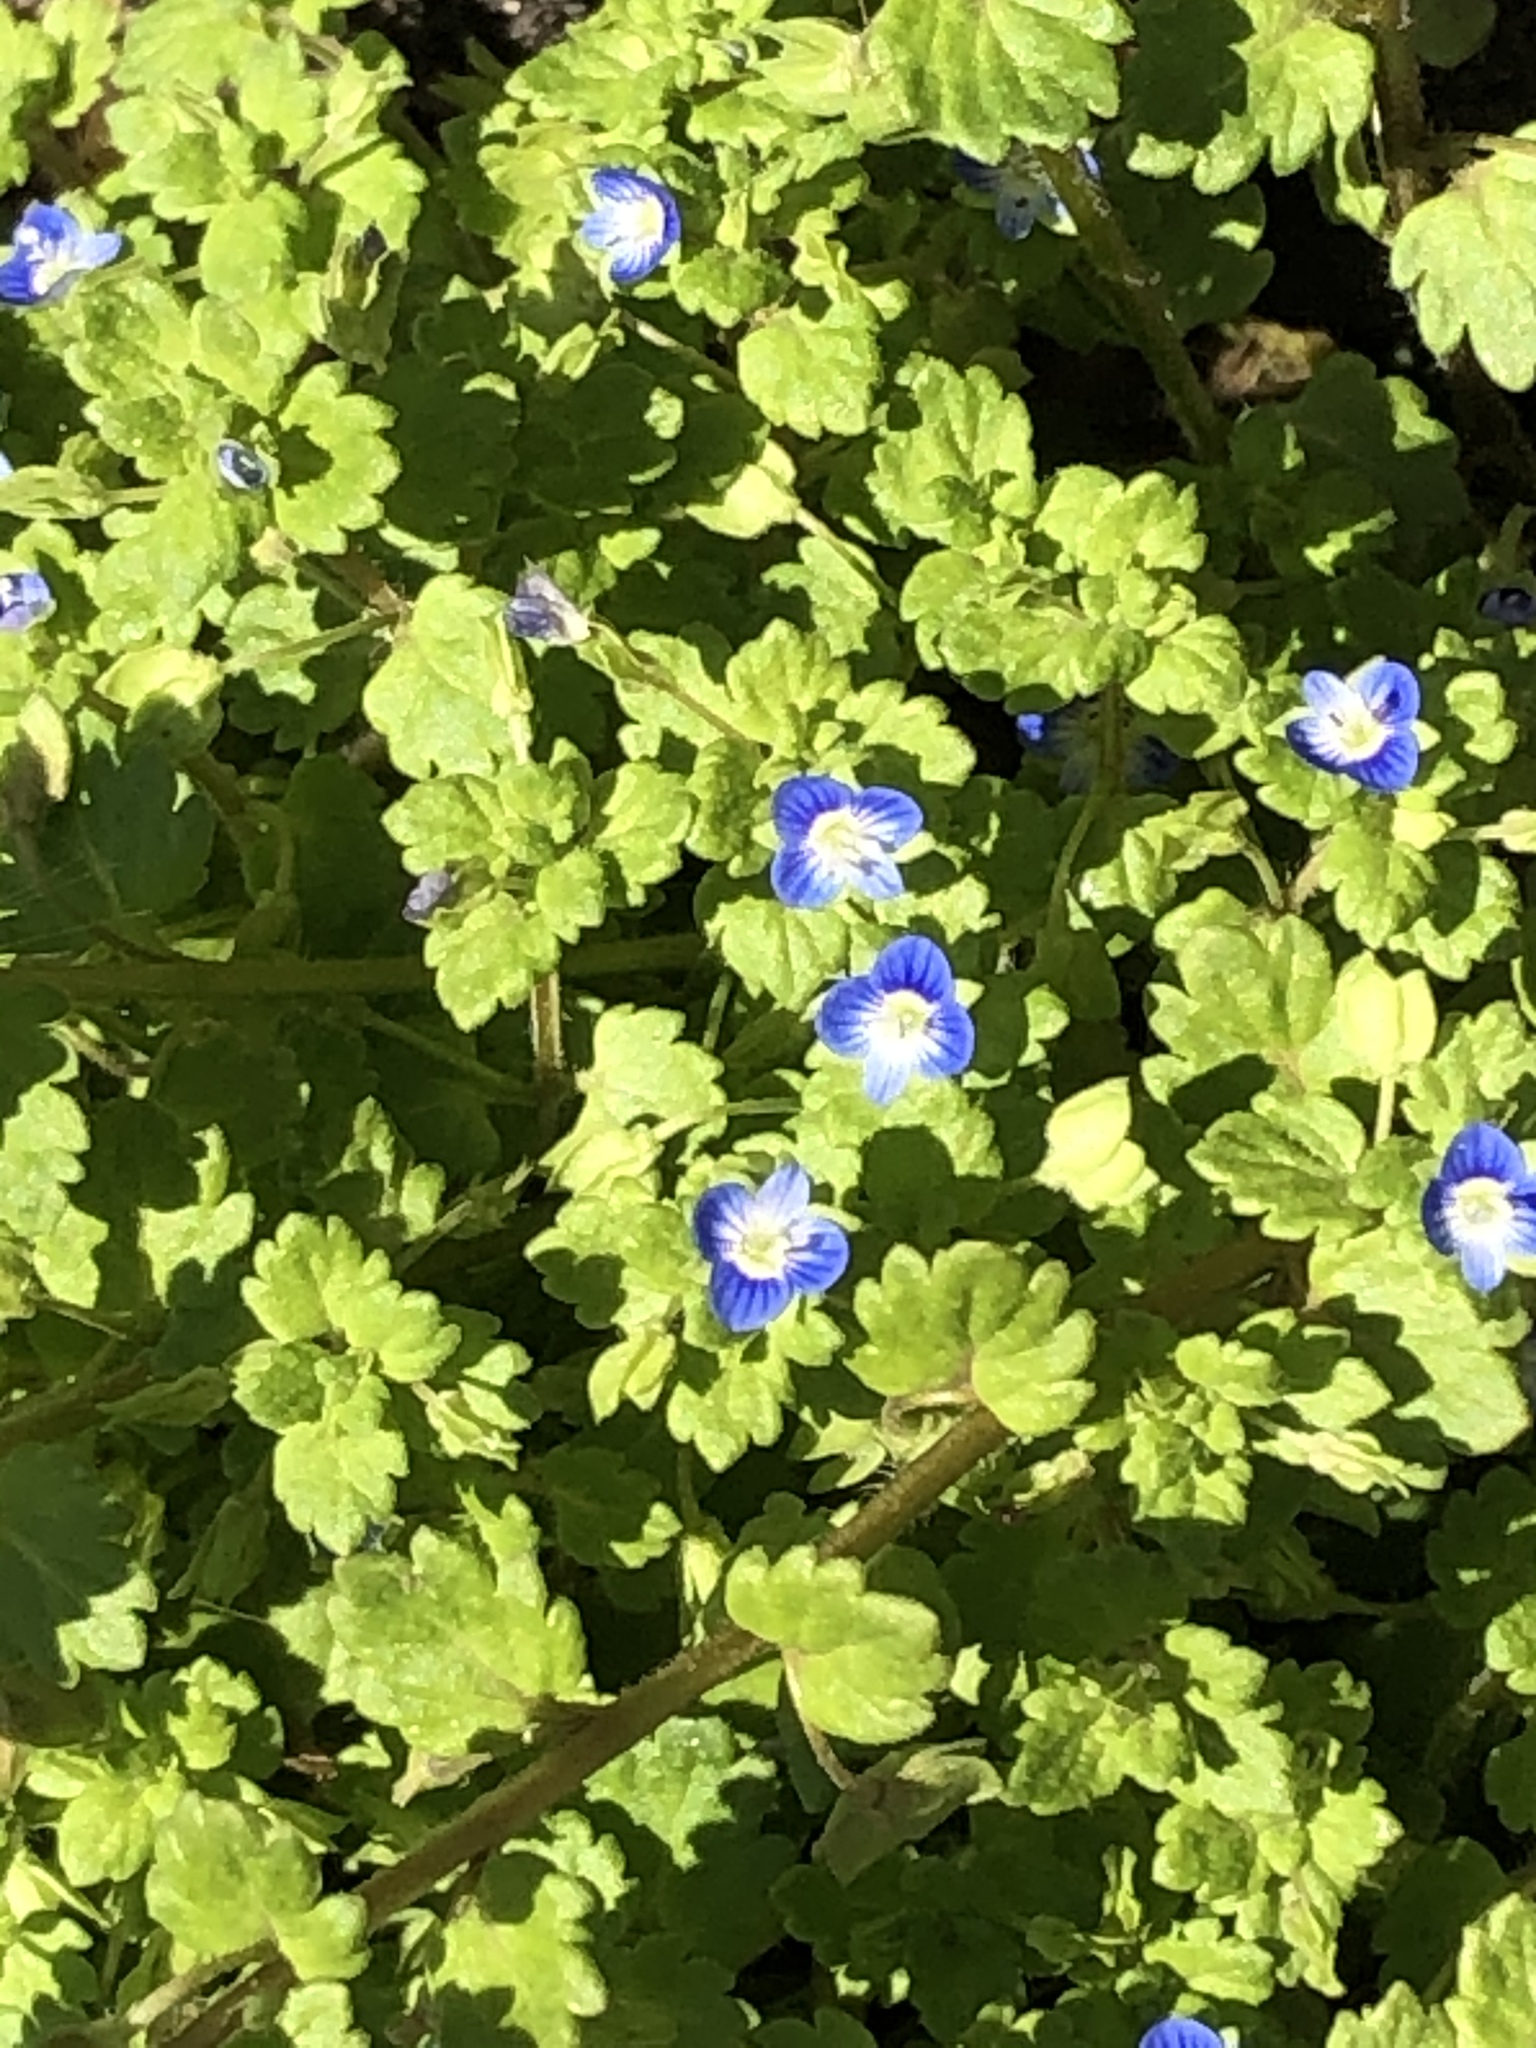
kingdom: Plantae
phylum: Tracheophyta
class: Magnoliopsida
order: Lamiales
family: Plantaginaceae
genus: Veronica
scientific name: Veronica polita
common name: Grey field-speedwell
